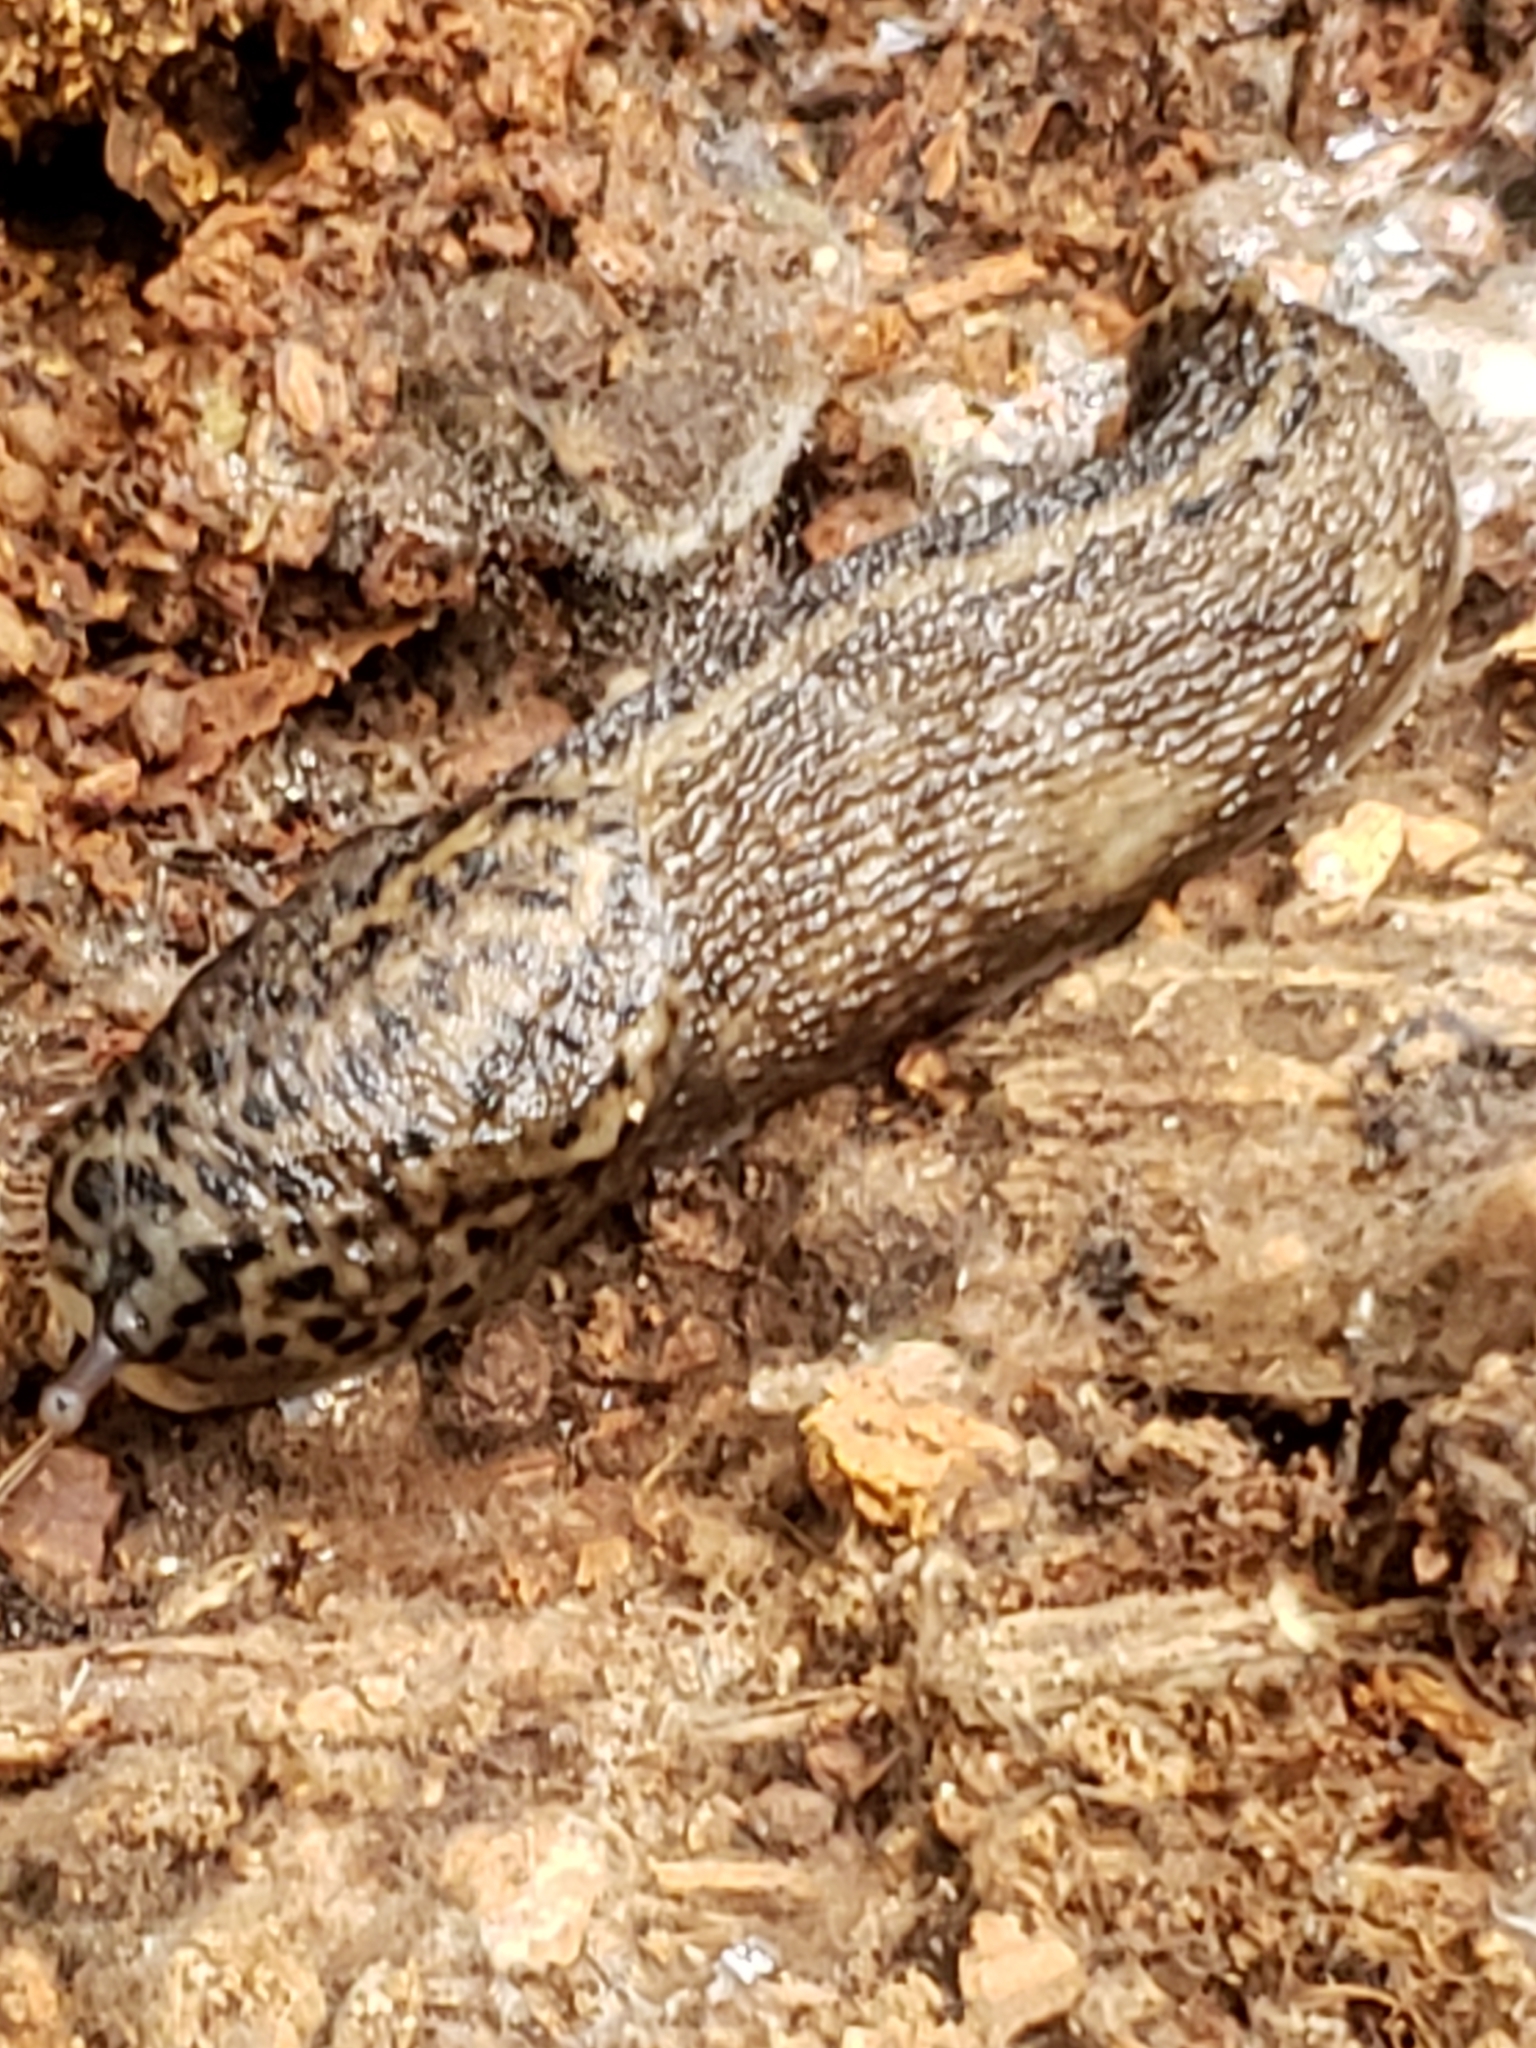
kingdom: Animalia
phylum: Mollusca
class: Gastropoda
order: Stylommatophora
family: Limacidae
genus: Limax
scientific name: Limax maximus
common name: Great grey slug
